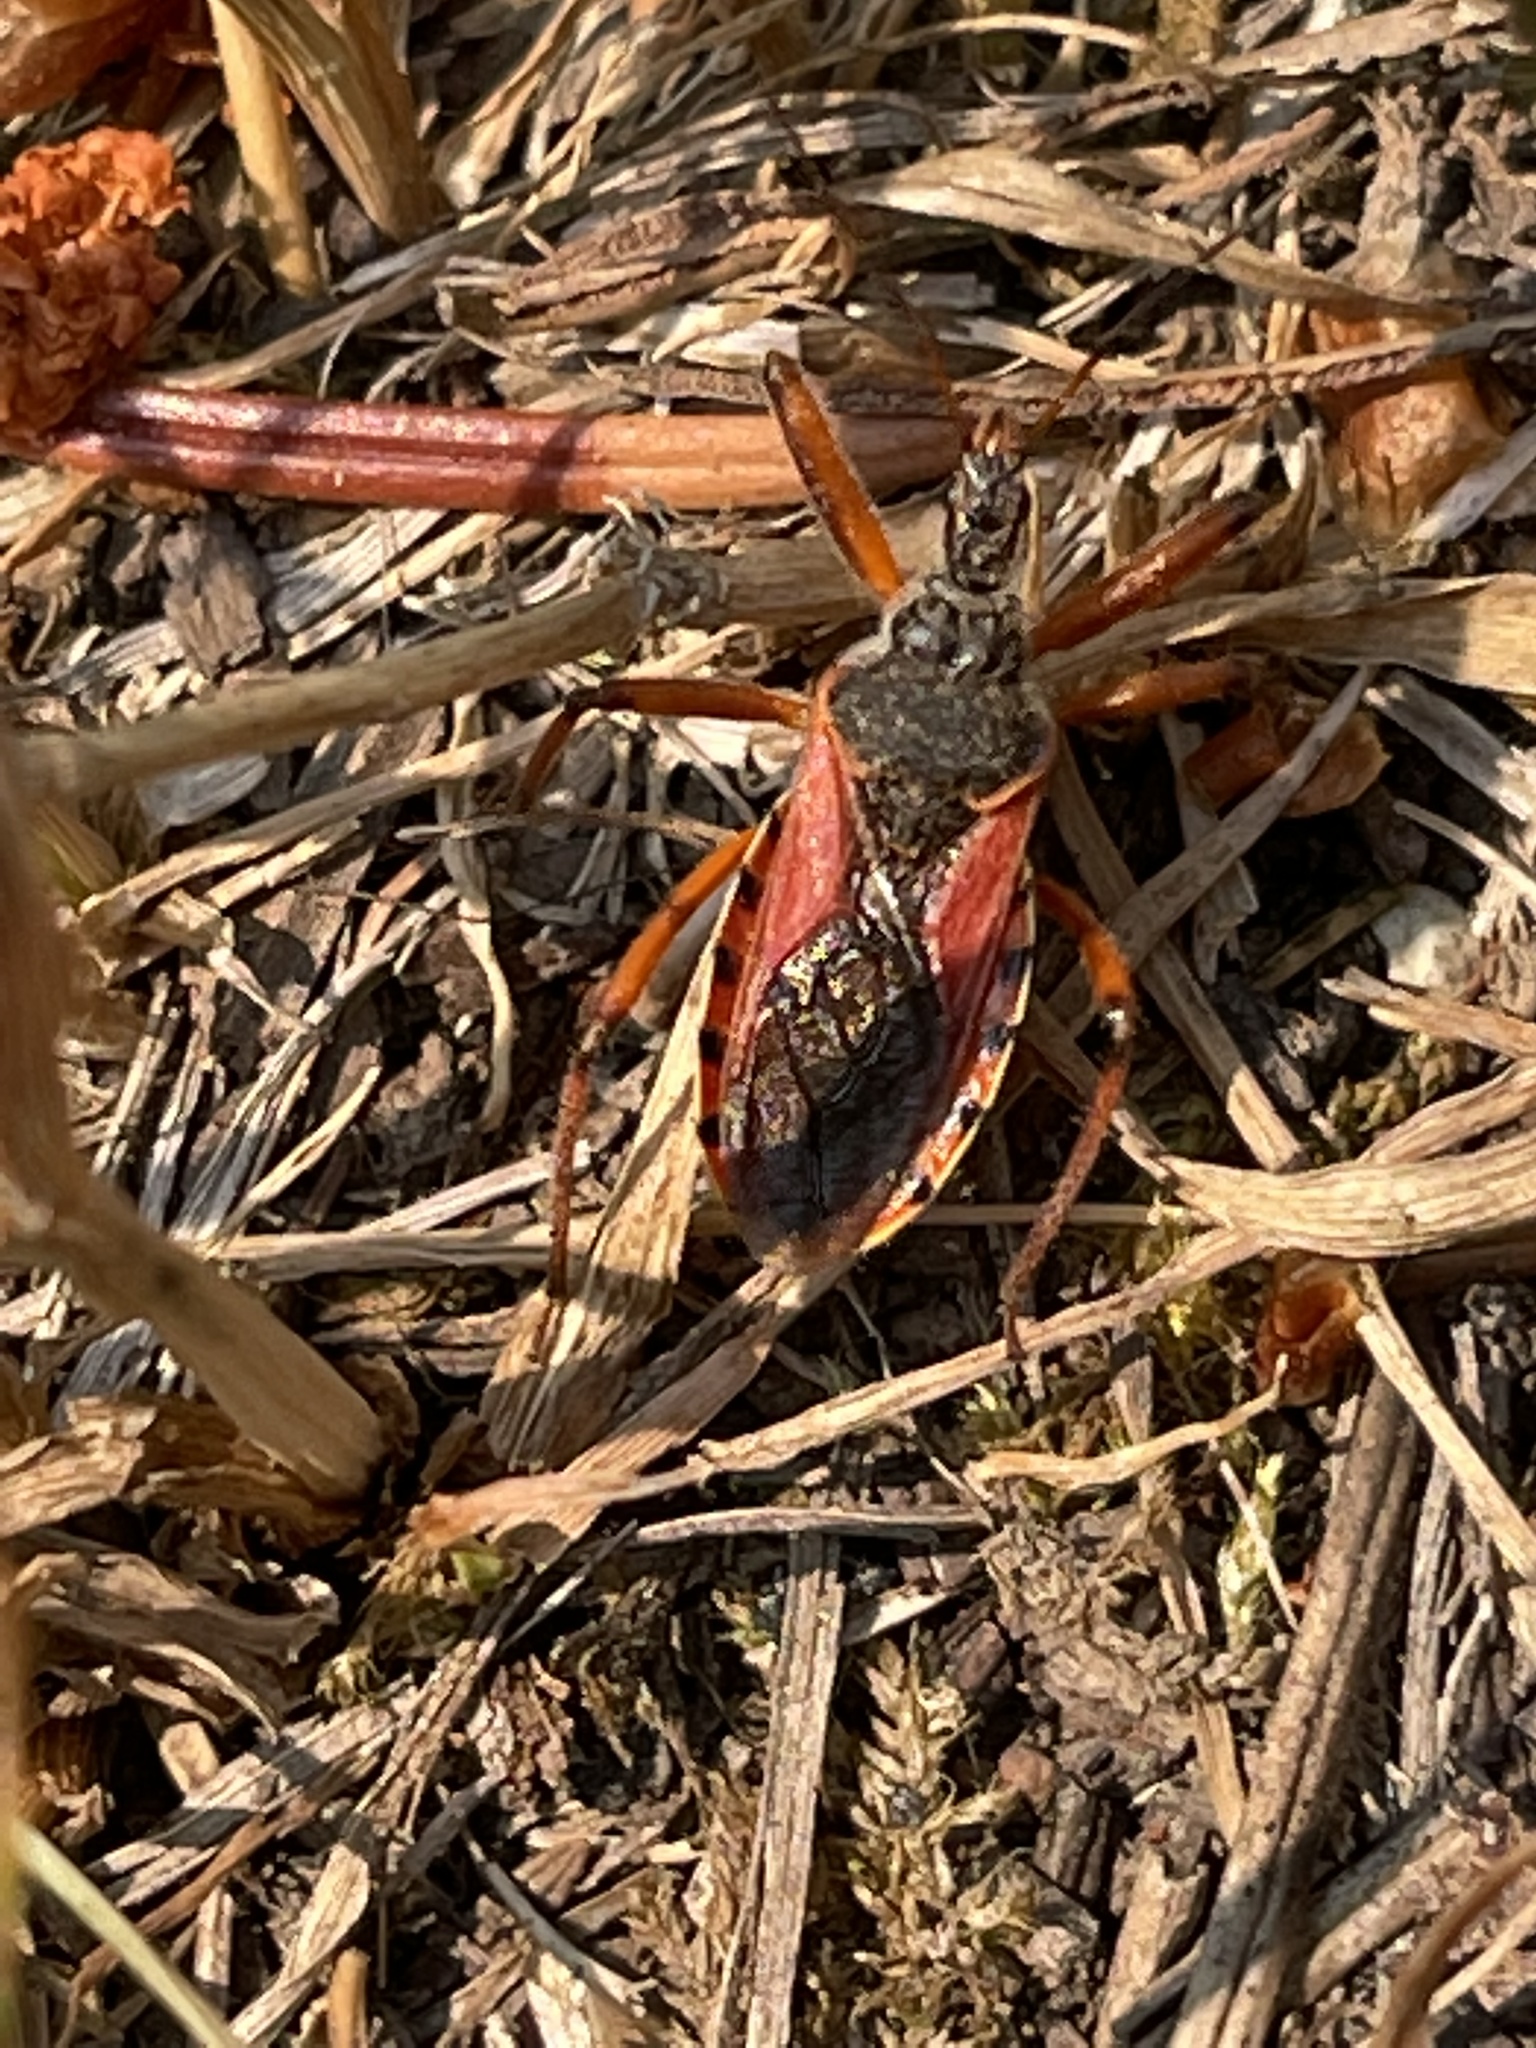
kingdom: Animalia
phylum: Arthropoda
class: Insecta
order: Hemiptera
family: Reduviidae
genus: Rhynocoris
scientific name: Rhynocoris ventralis
